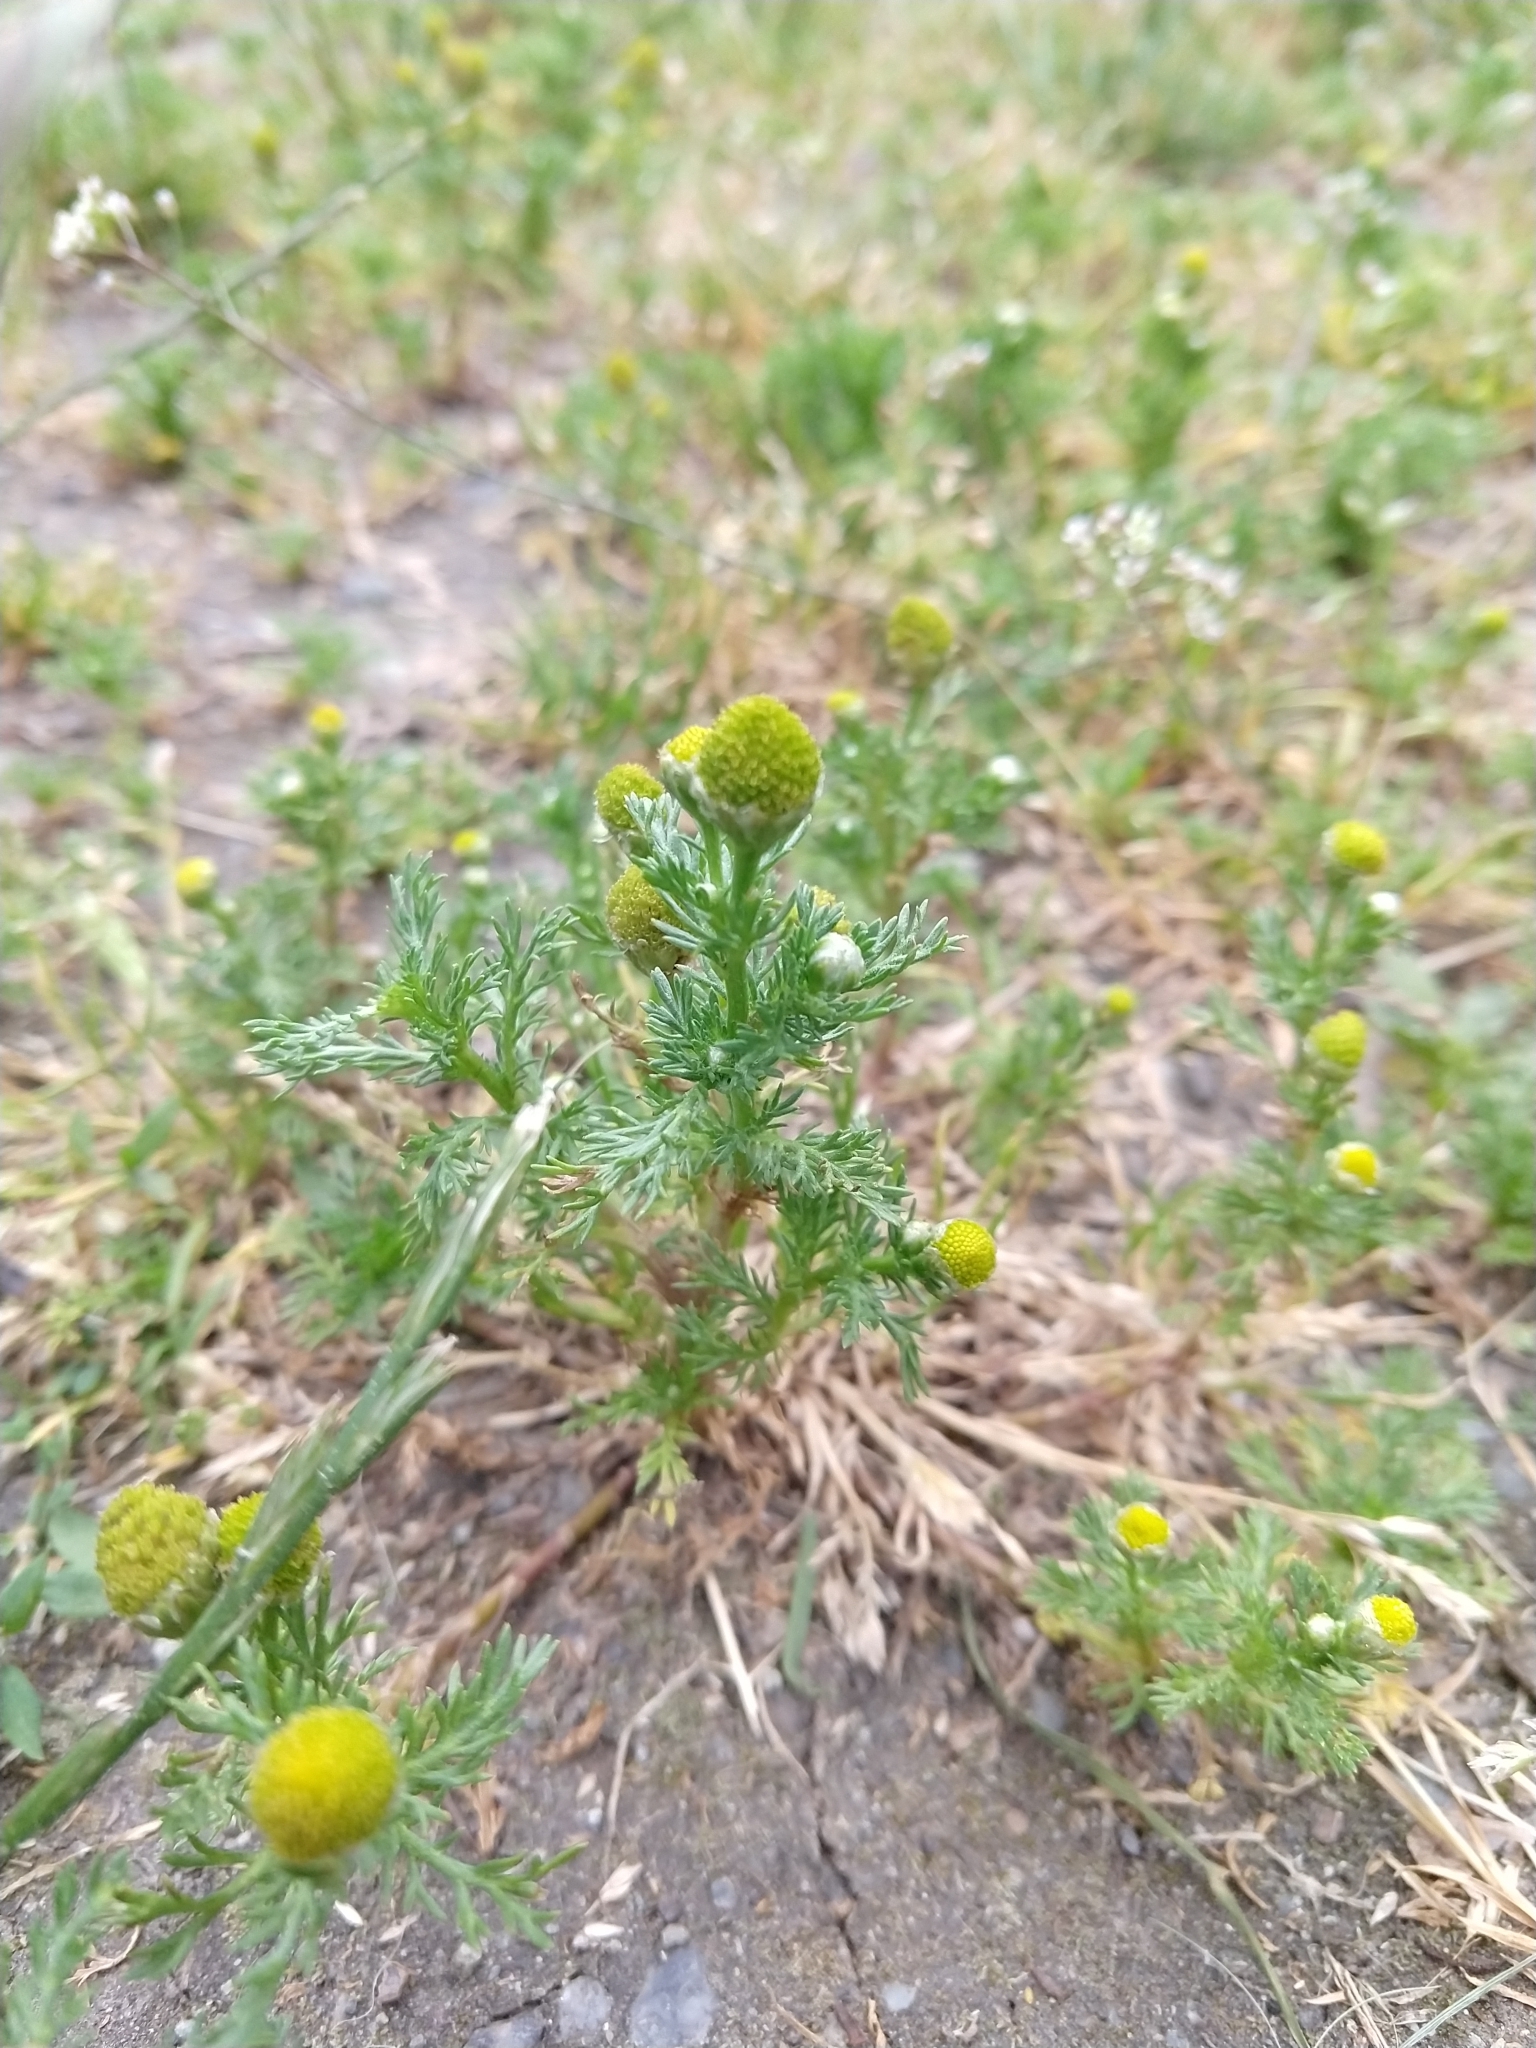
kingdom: Plantae
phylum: Tracheophyta
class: Magnoliopsida
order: Asterales
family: Asteraceae
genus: Matricaria
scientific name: Matricaria discoidea
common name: Disc mayweed
